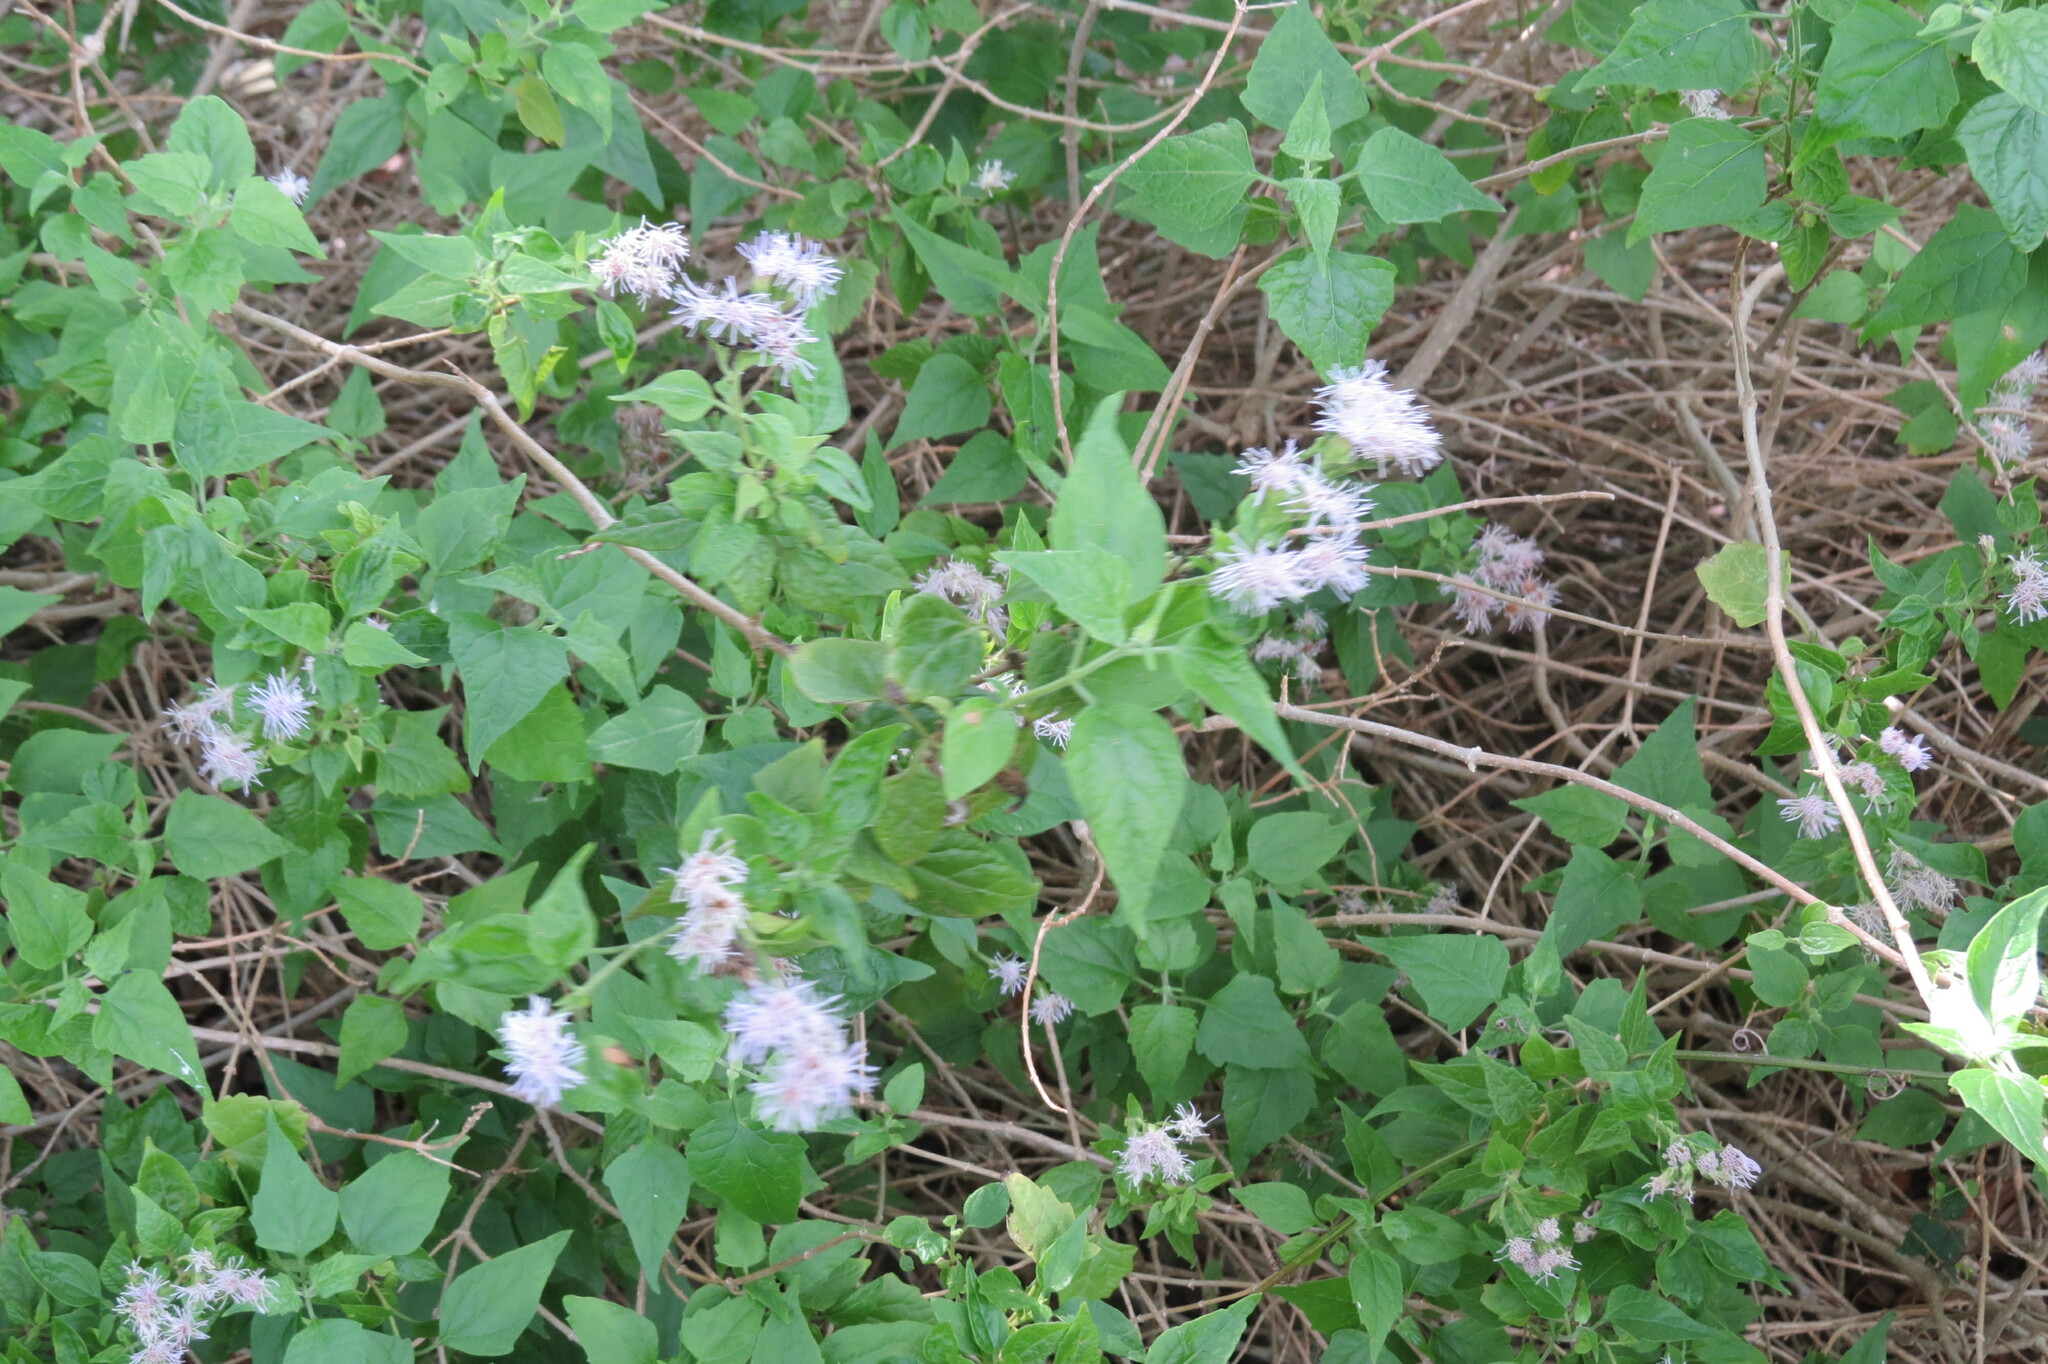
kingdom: Plantae
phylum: Tracheophyta
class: Magnoliopsida
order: Asterales
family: Asteraceae
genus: Tamaulipa
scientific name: Tamaulipa azurea
